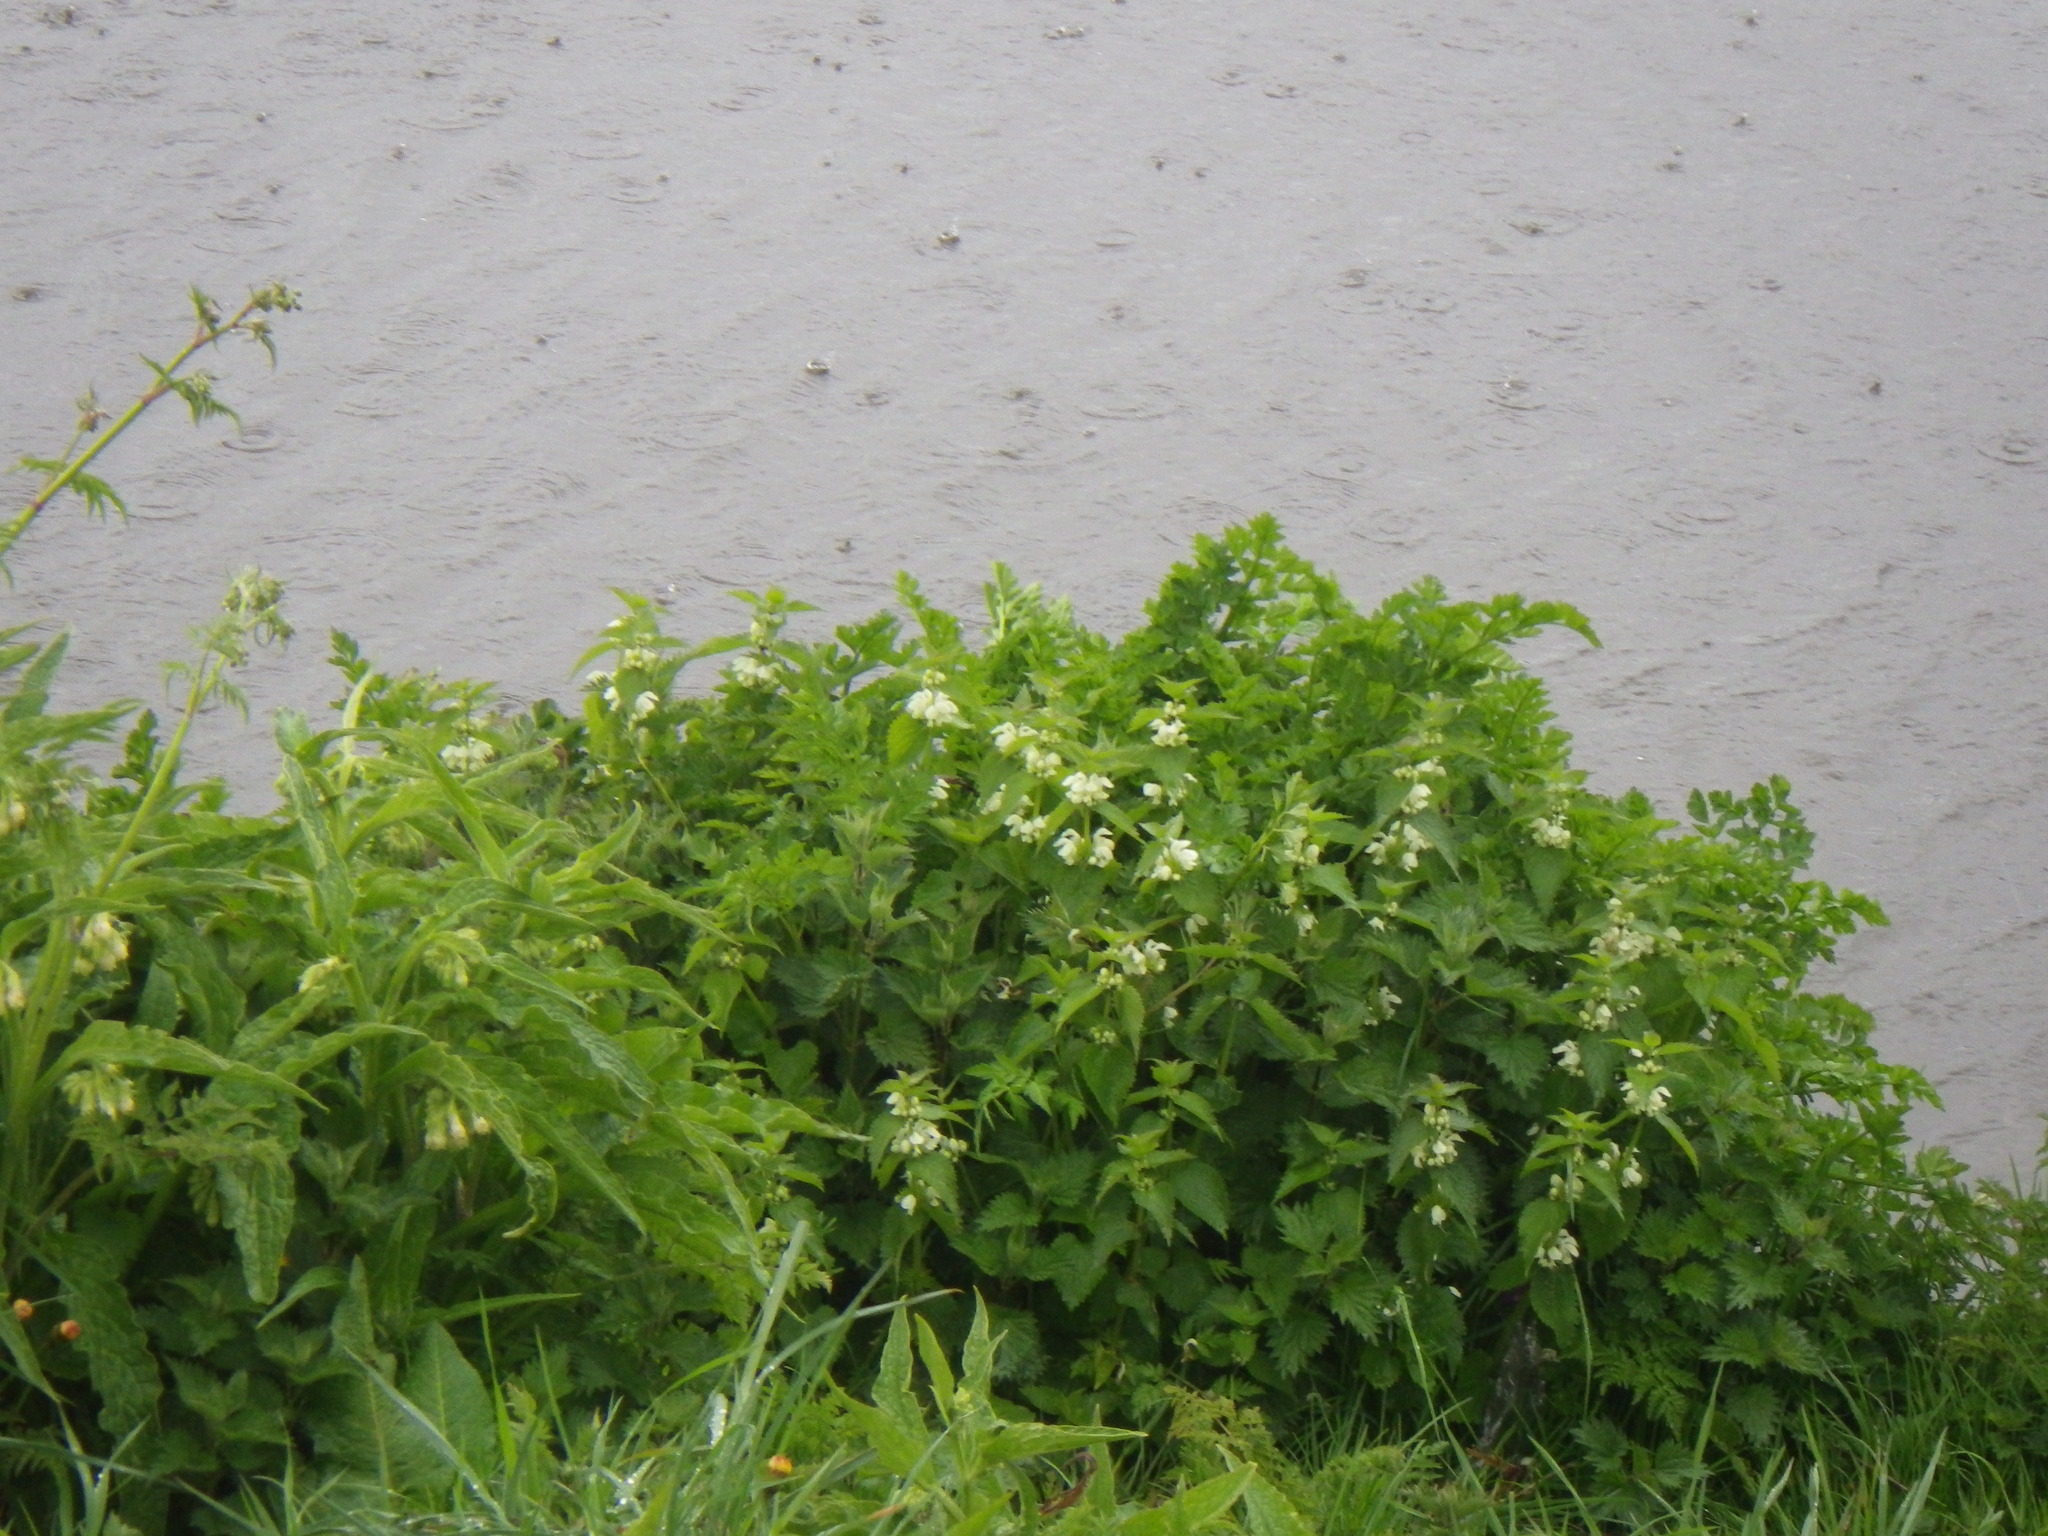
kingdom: Plantae
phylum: Tracheophyta
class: Magnoliopsida
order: Boraginales
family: Boraginaceae
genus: Symphytum
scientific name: Symphytum officinale
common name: Common comfrey
